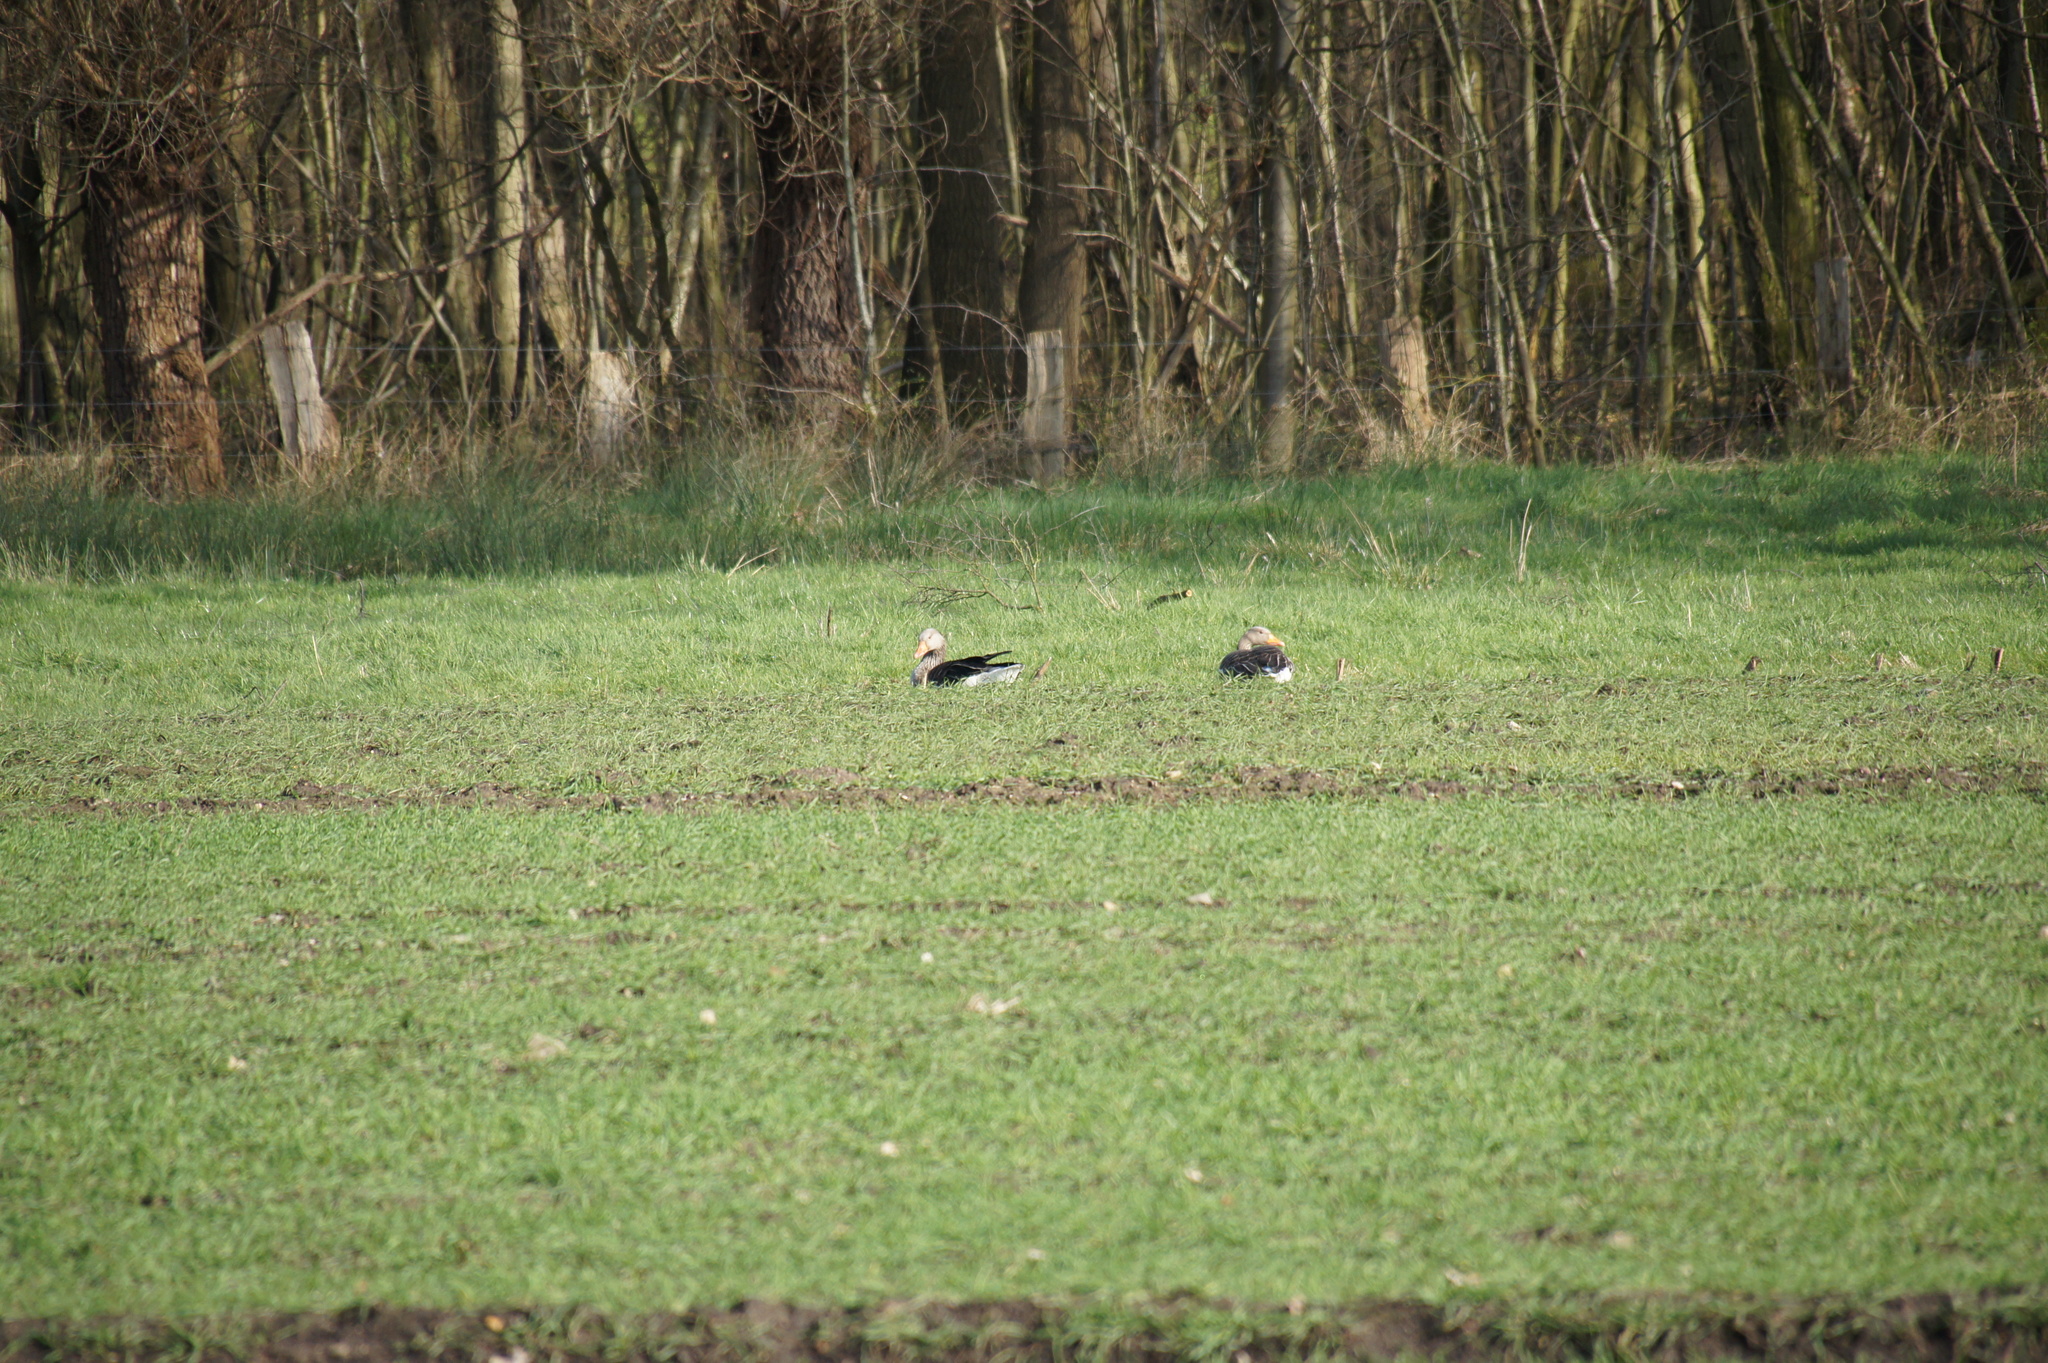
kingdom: Animalia
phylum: Chordata
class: Aves
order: Anseriformes
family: Anatidae
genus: Anser
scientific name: Anser anser
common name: Greylag goose
